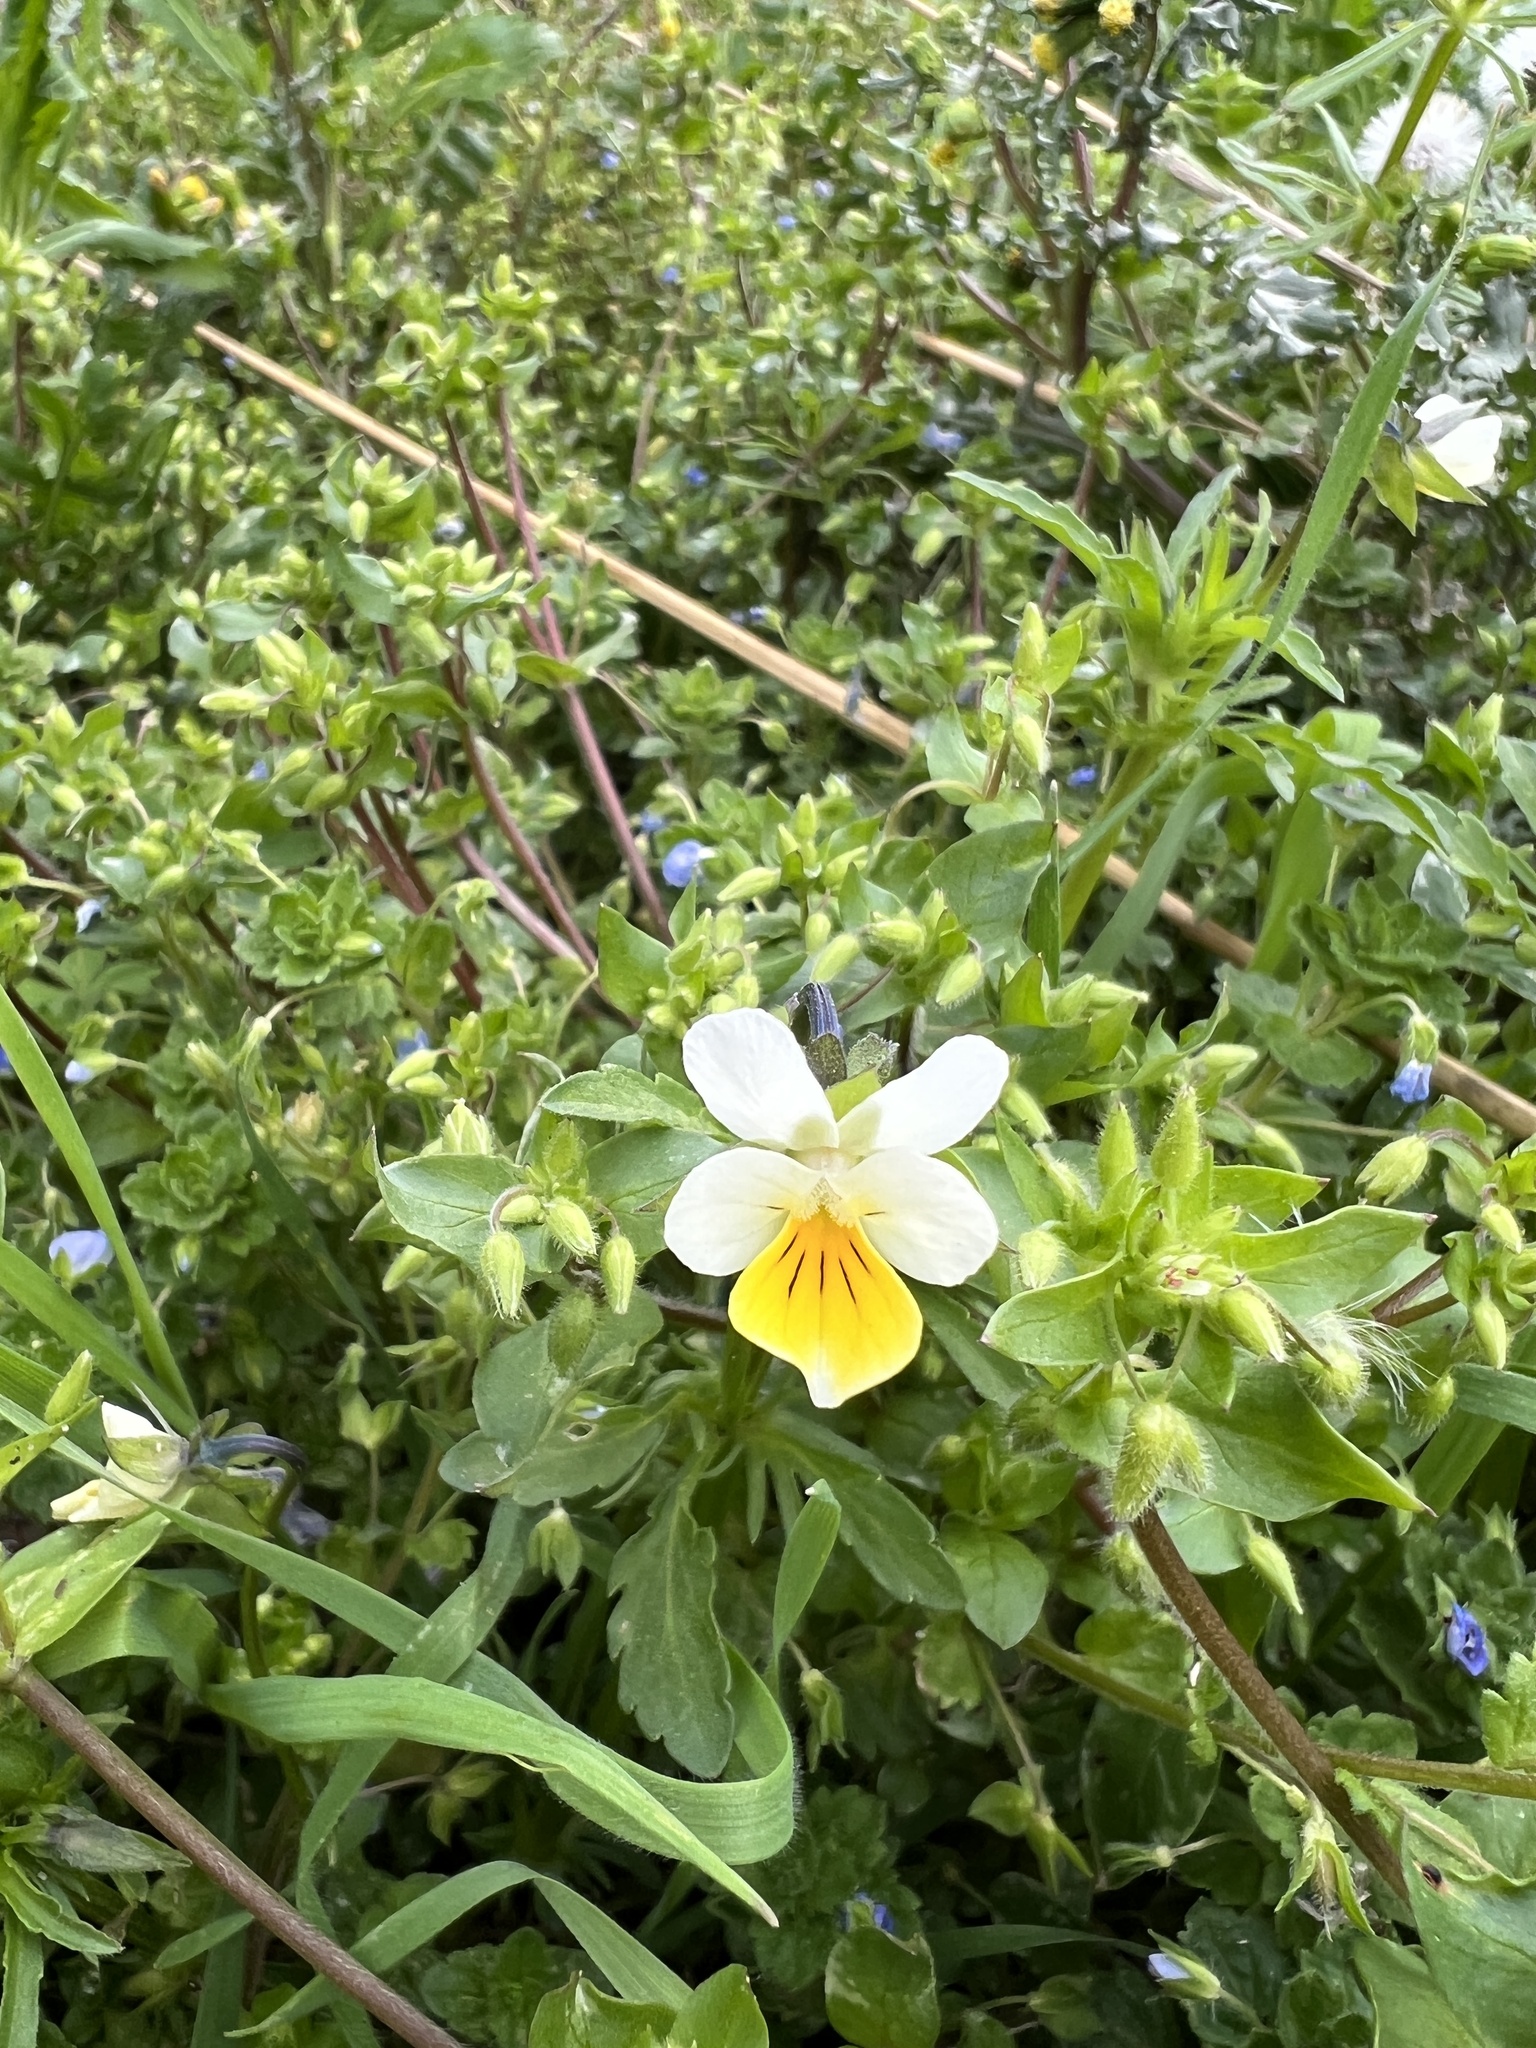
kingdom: Plantae
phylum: Tracheophyta
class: Magnoliopsida
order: Malpighiales
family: Violaceae
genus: Viola
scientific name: Viola arvensis
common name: Field pansy
